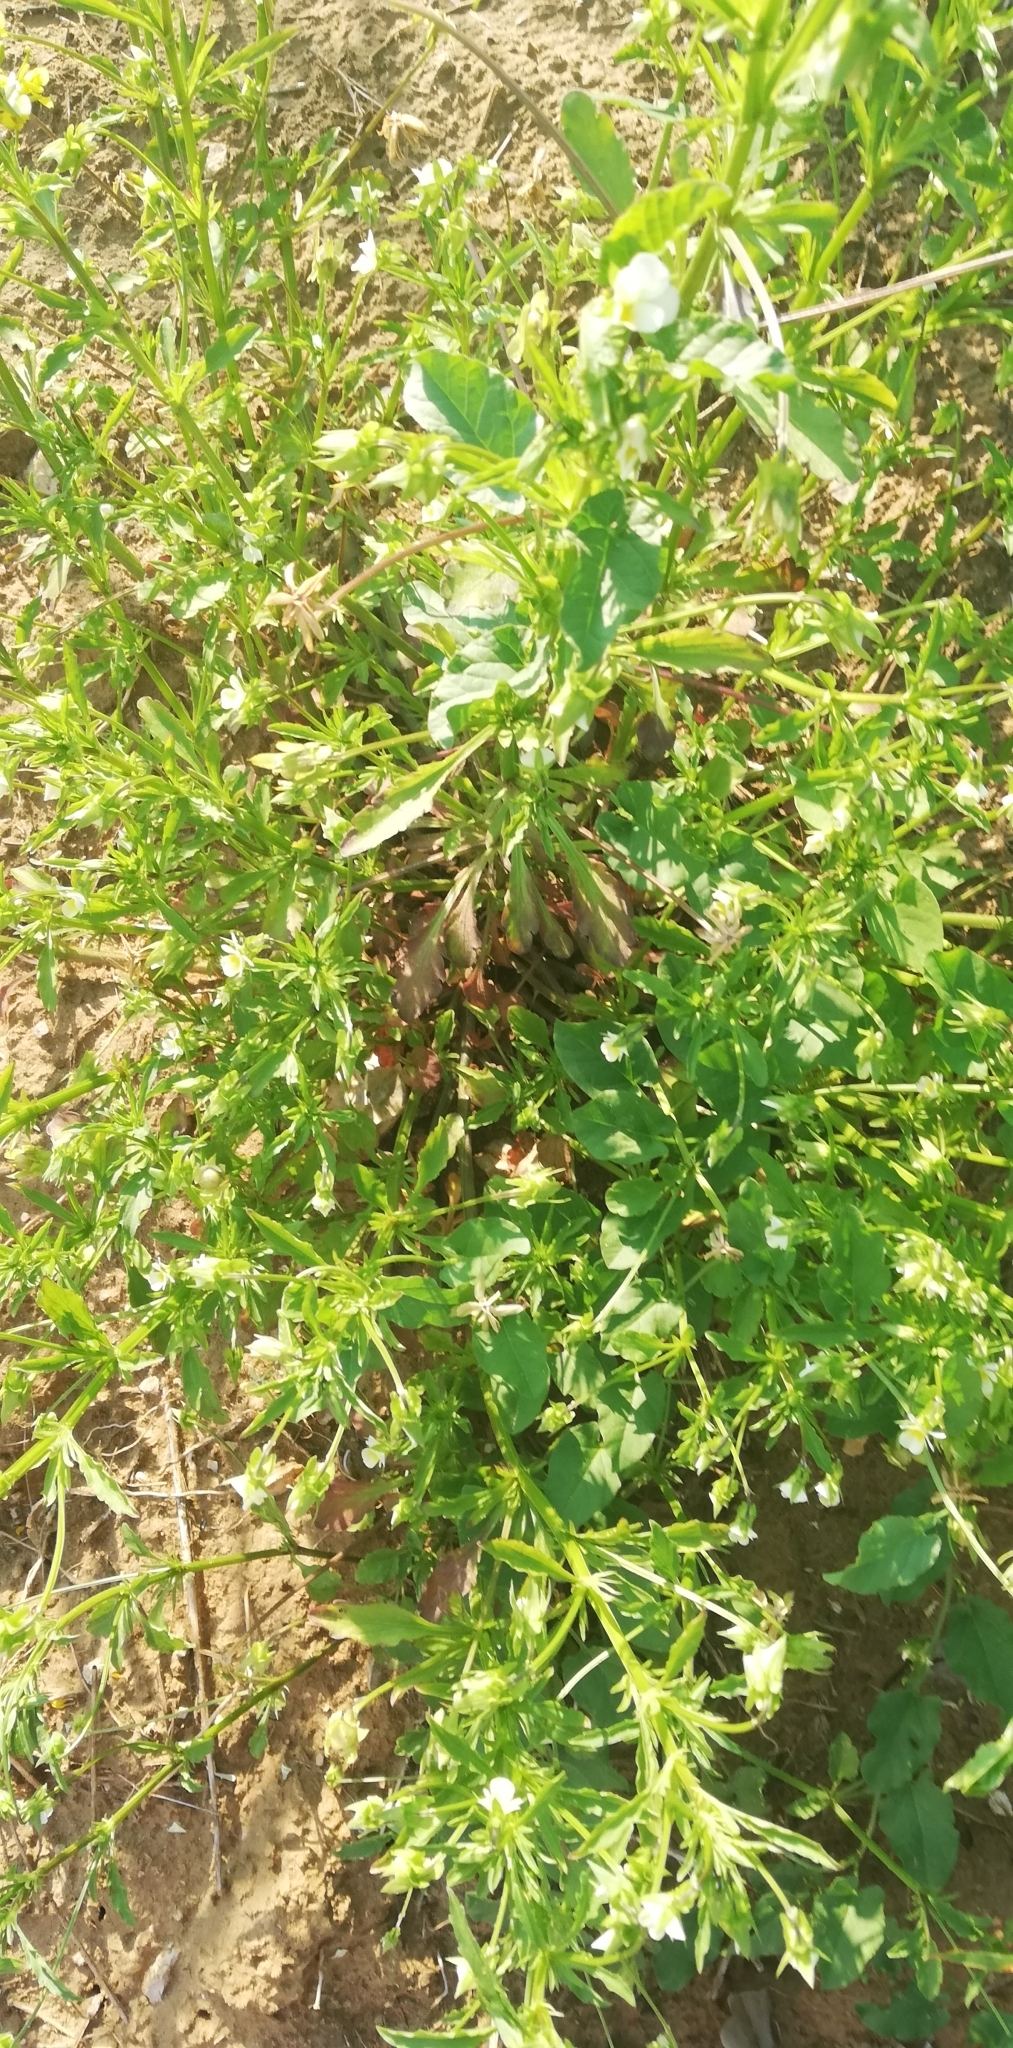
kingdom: Plantae
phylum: Tracheophyta
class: Magnoliopsida
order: Malpighiales
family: Violaceae
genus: Viola
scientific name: Viola arvensis
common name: Field pansy
